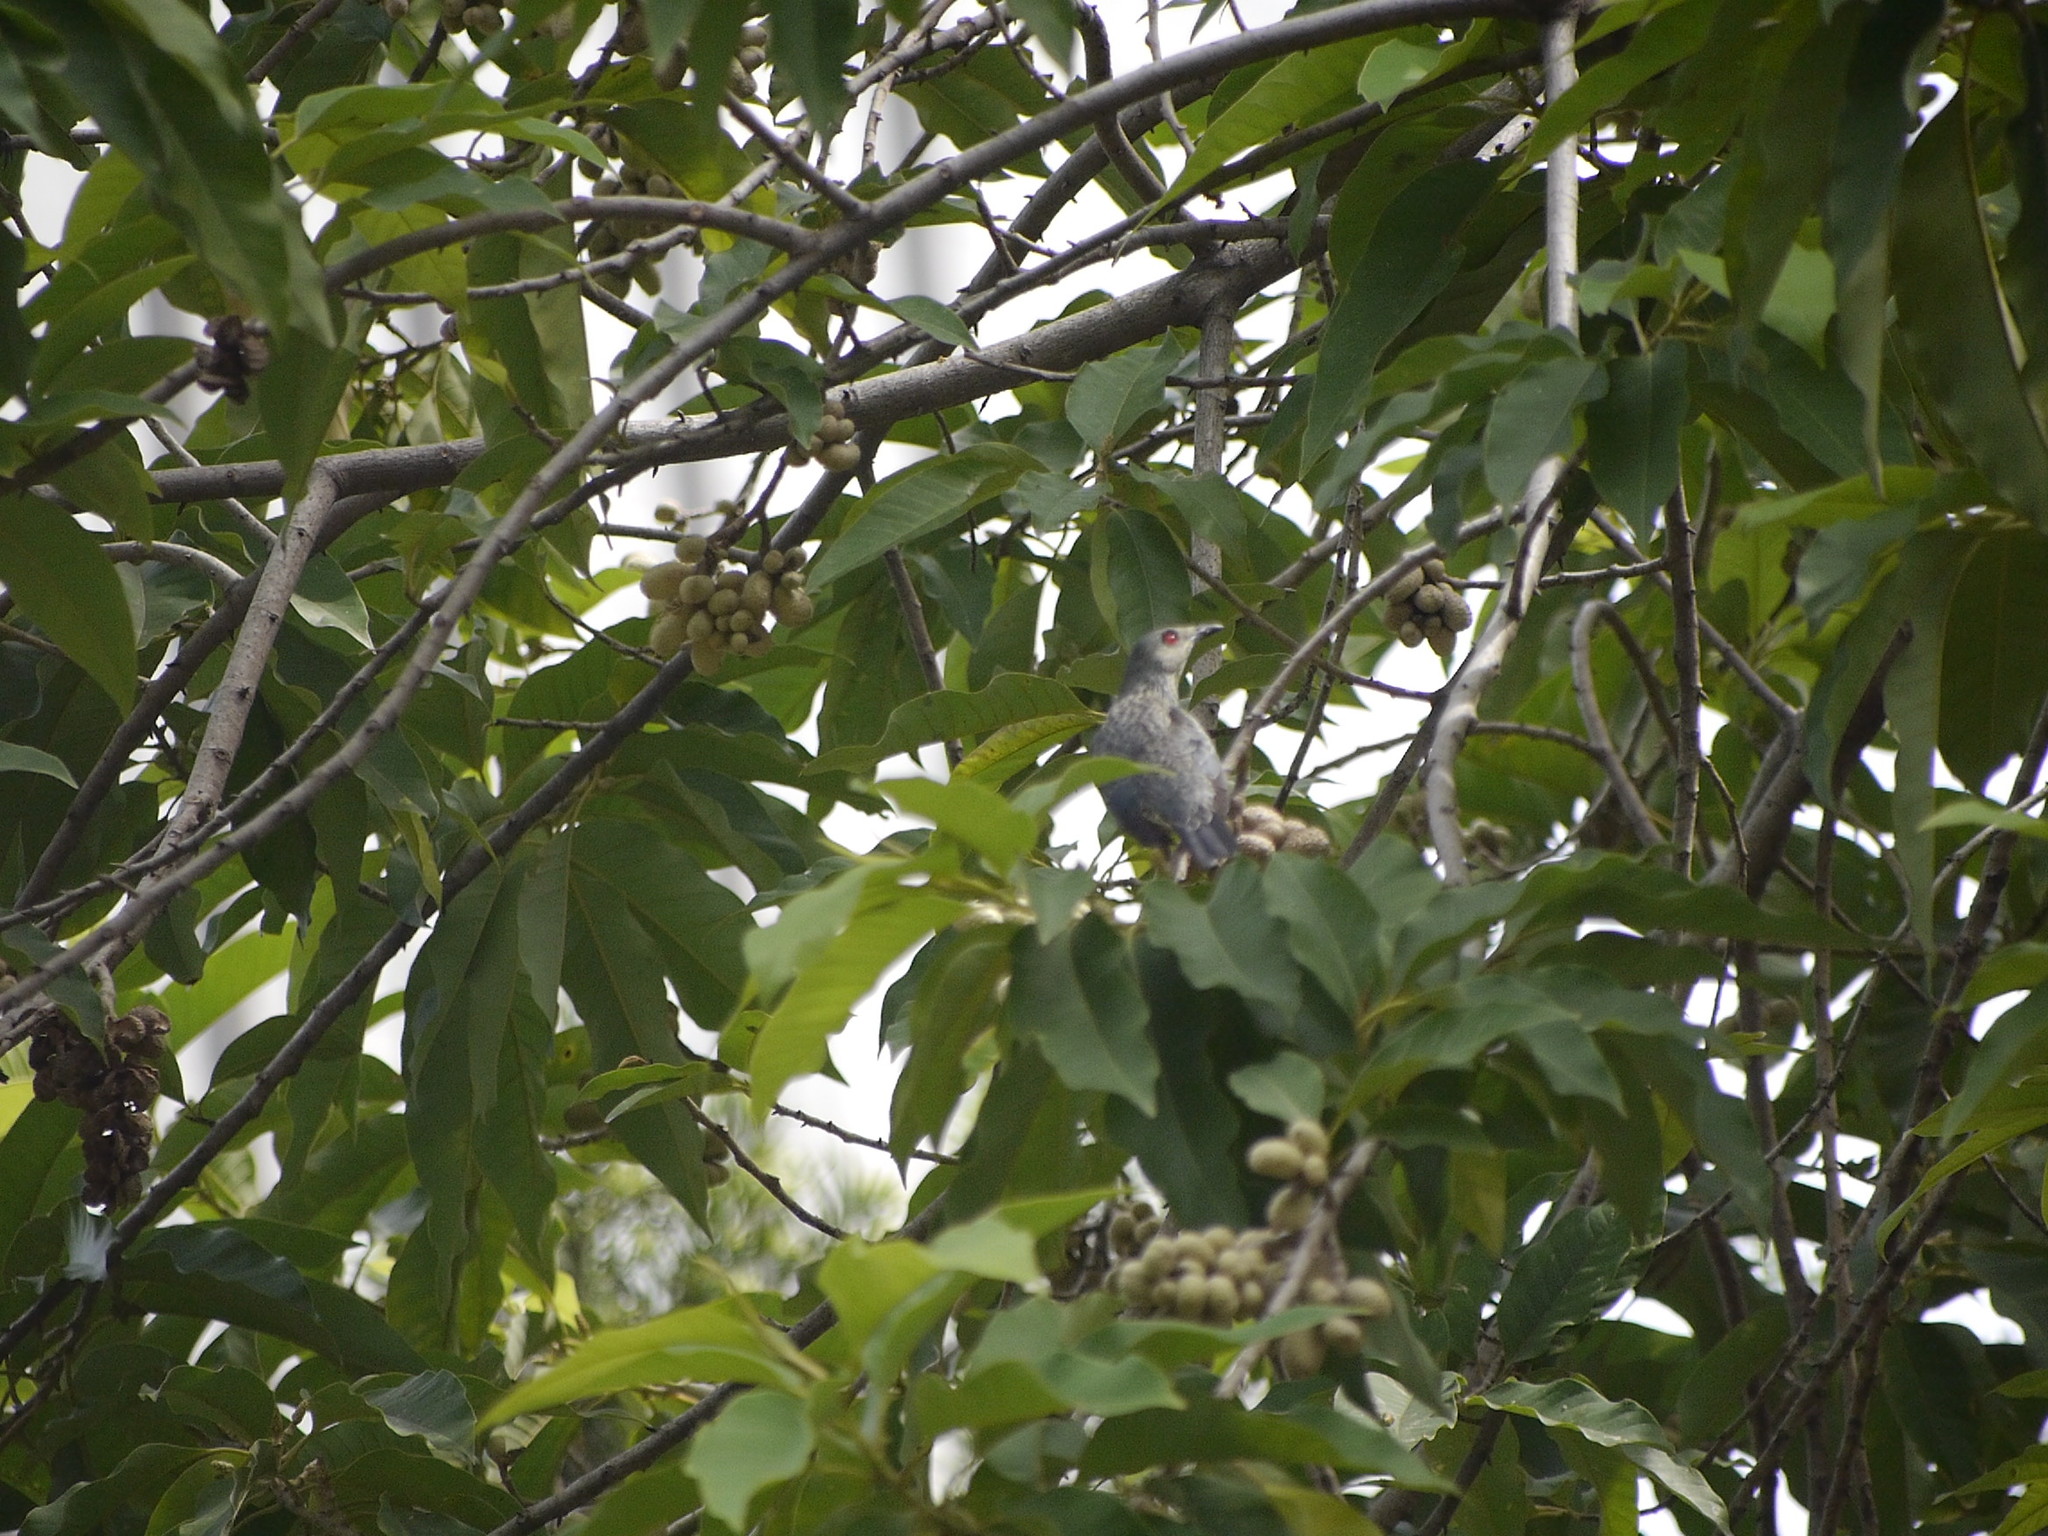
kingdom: Animalia
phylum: Chordata
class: Aves
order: Passeriformes
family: Sturnidae
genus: Aplonis
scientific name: Aplonis panayensis
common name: Asian glossy starling
